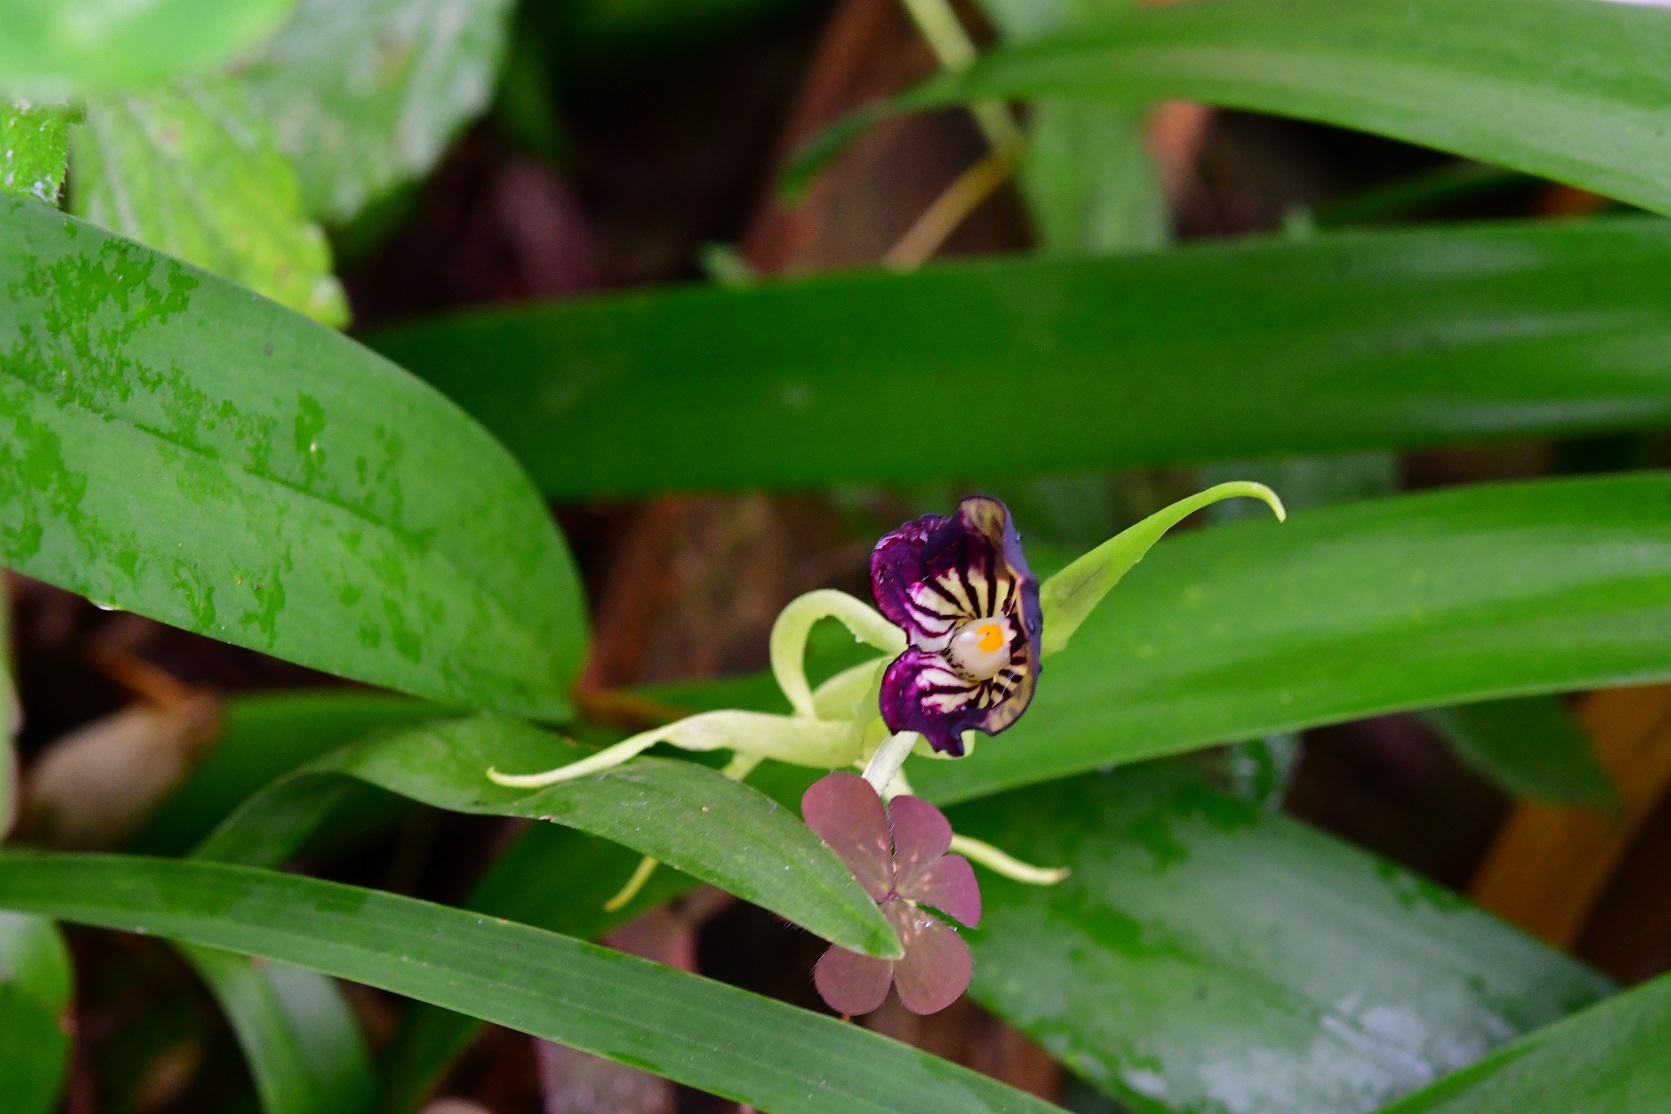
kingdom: Plantae
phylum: Tracheophyta
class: Liliopsida
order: Asparagales
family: Orchidaceae
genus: Prosthechea
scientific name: Prosthechea cochleata
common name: Clamshell orchid
